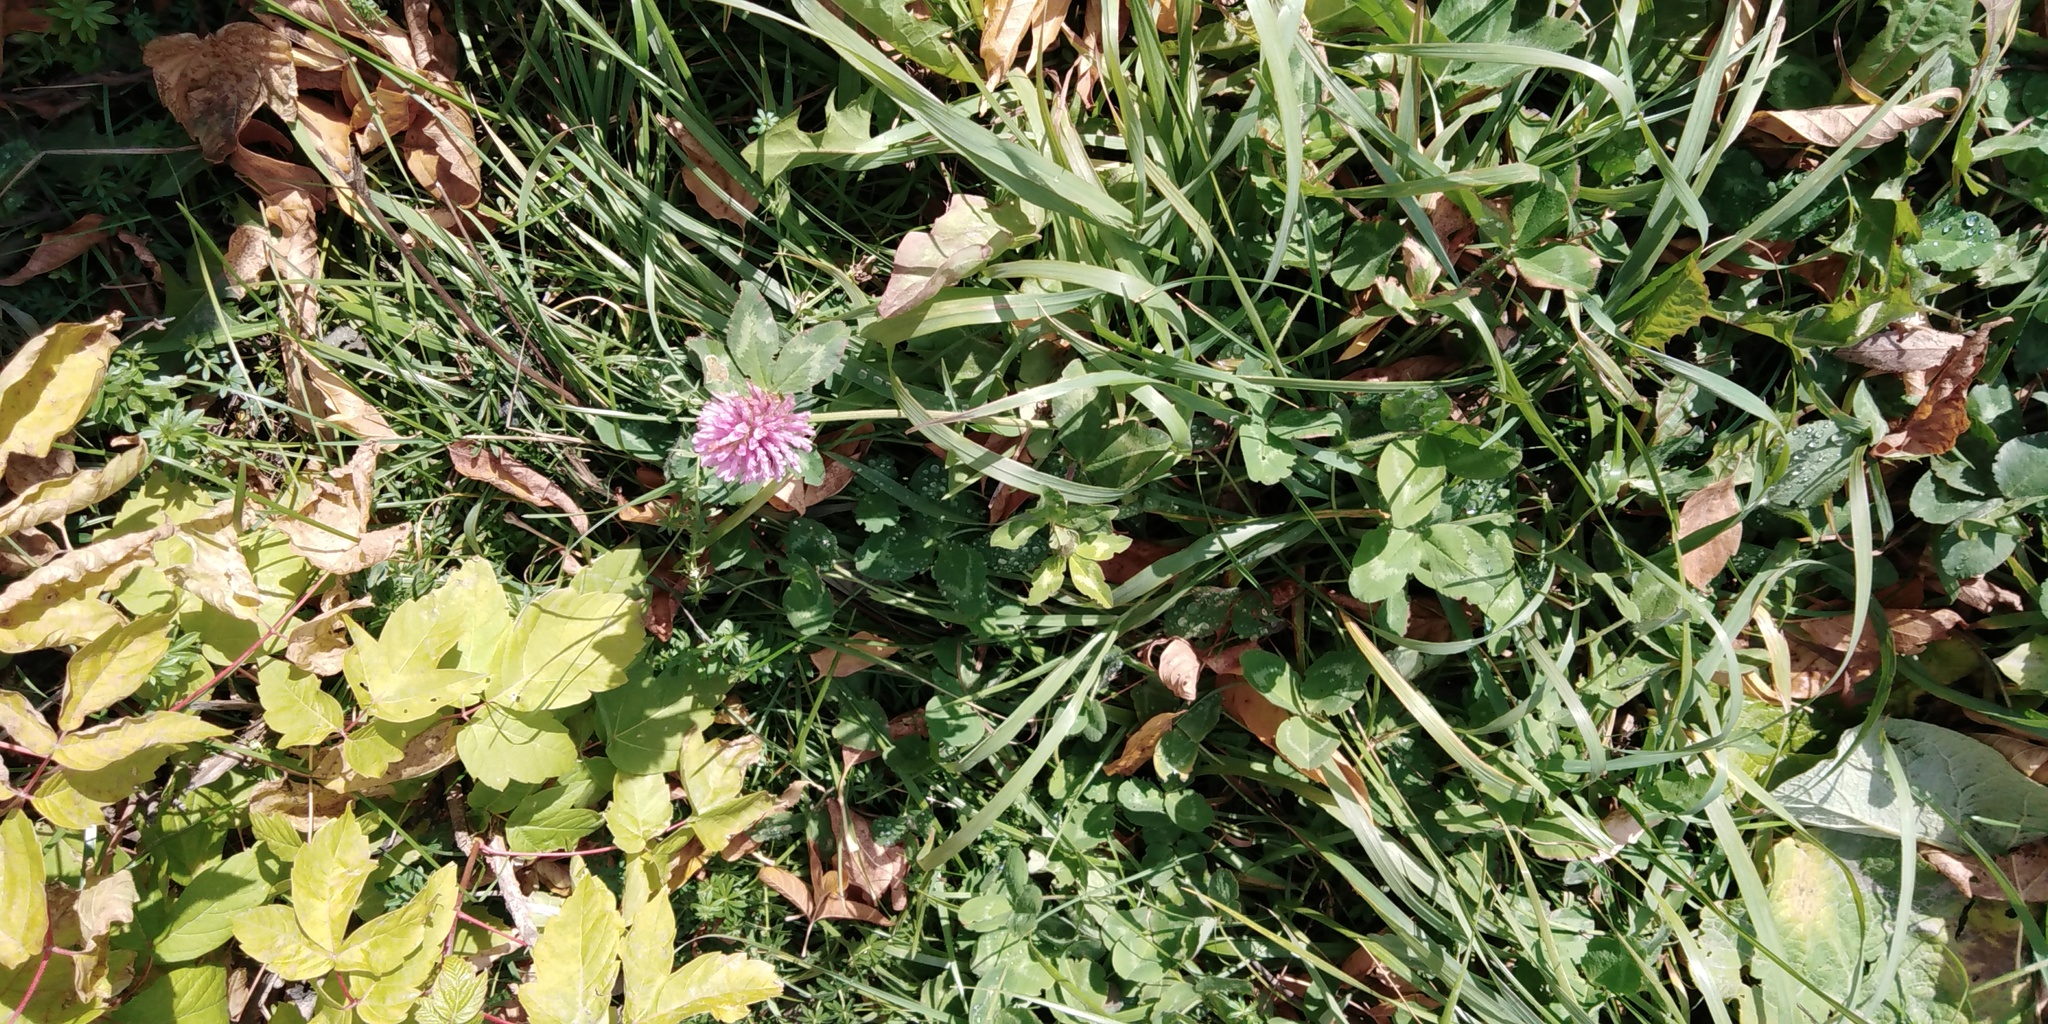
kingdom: Plantae
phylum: Tracheophyta
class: Magnoliopsida
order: Fabales
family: Fabaceae
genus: Trifolium
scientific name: Trifolium pratense
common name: Red clover
